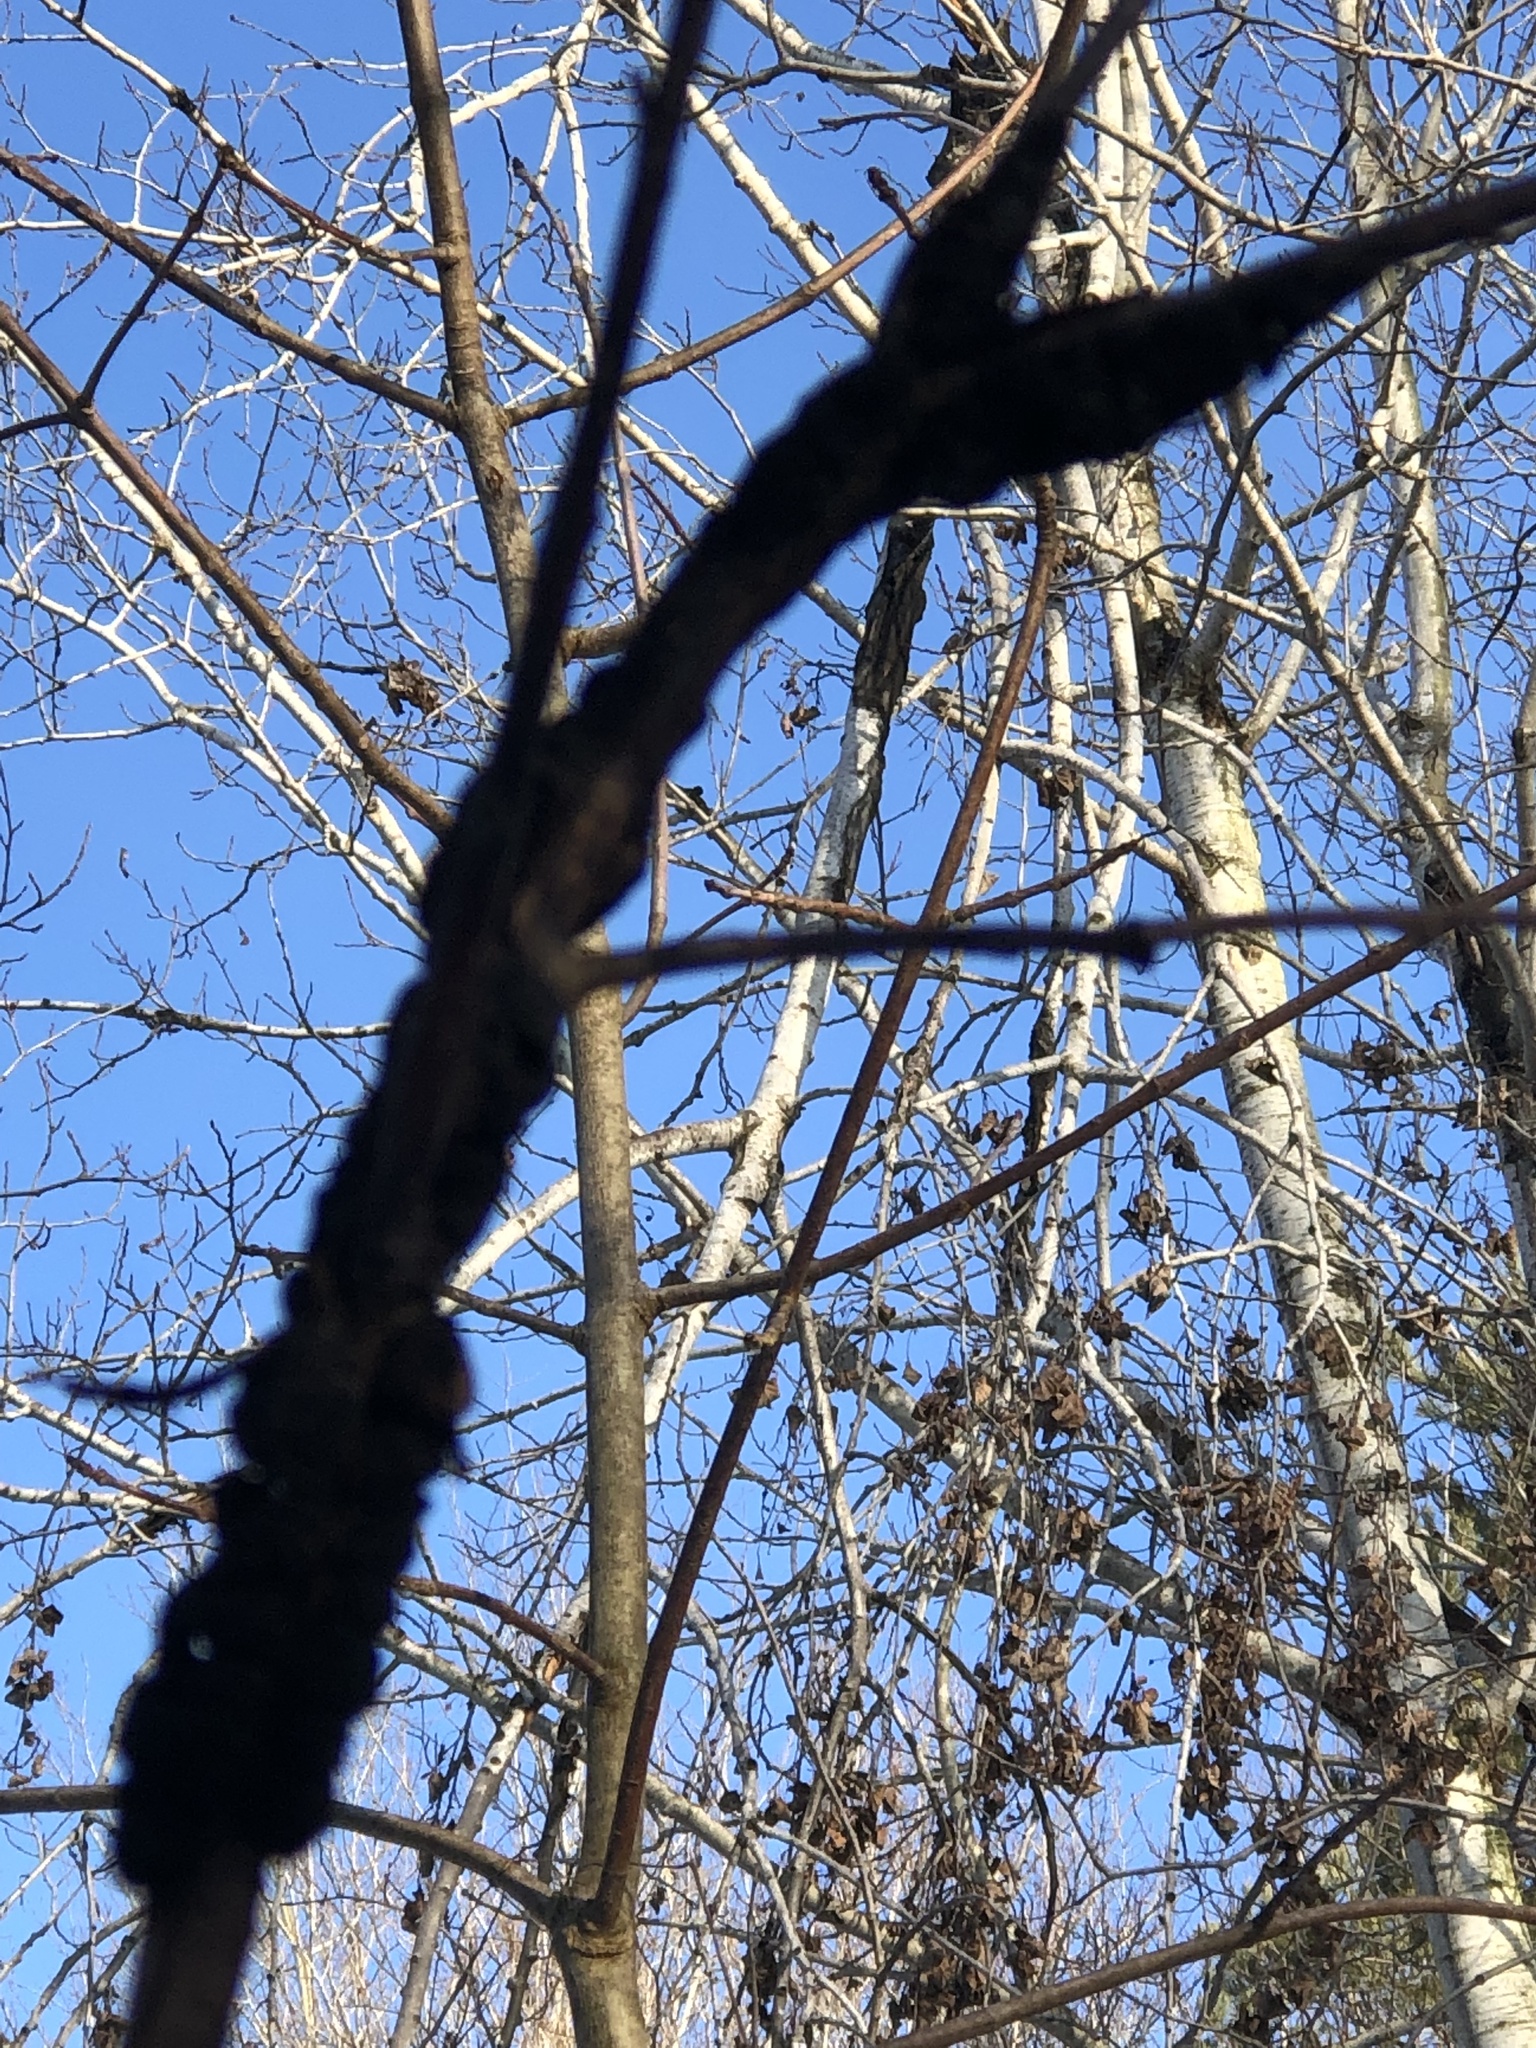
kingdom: Fungi
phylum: Ascomycota
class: Dothideomycetes
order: Venturiales
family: Venturiaceae
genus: Apiosporina
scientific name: Apiosporina morbosa
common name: Black knot
